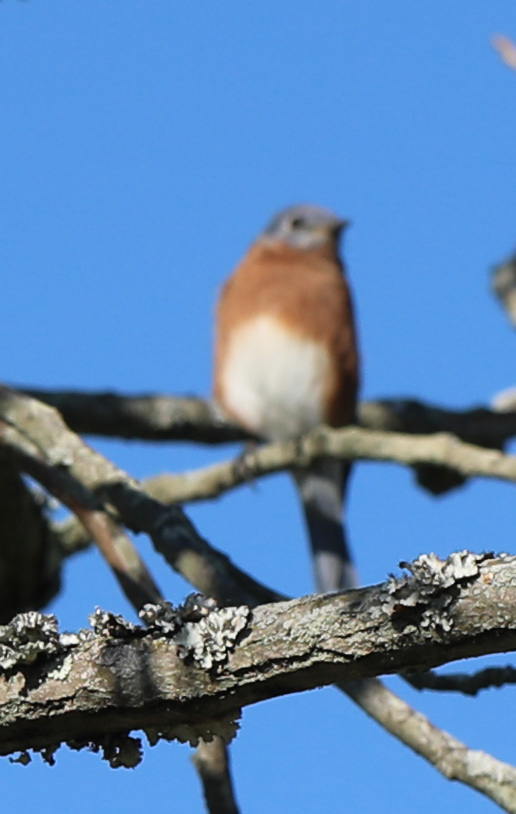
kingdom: Animalia
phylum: Chordata
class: Aves
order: Passeriformes
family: Turdidae
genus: Sialia
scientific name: Sialia sialis
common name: Eastern bluebird
